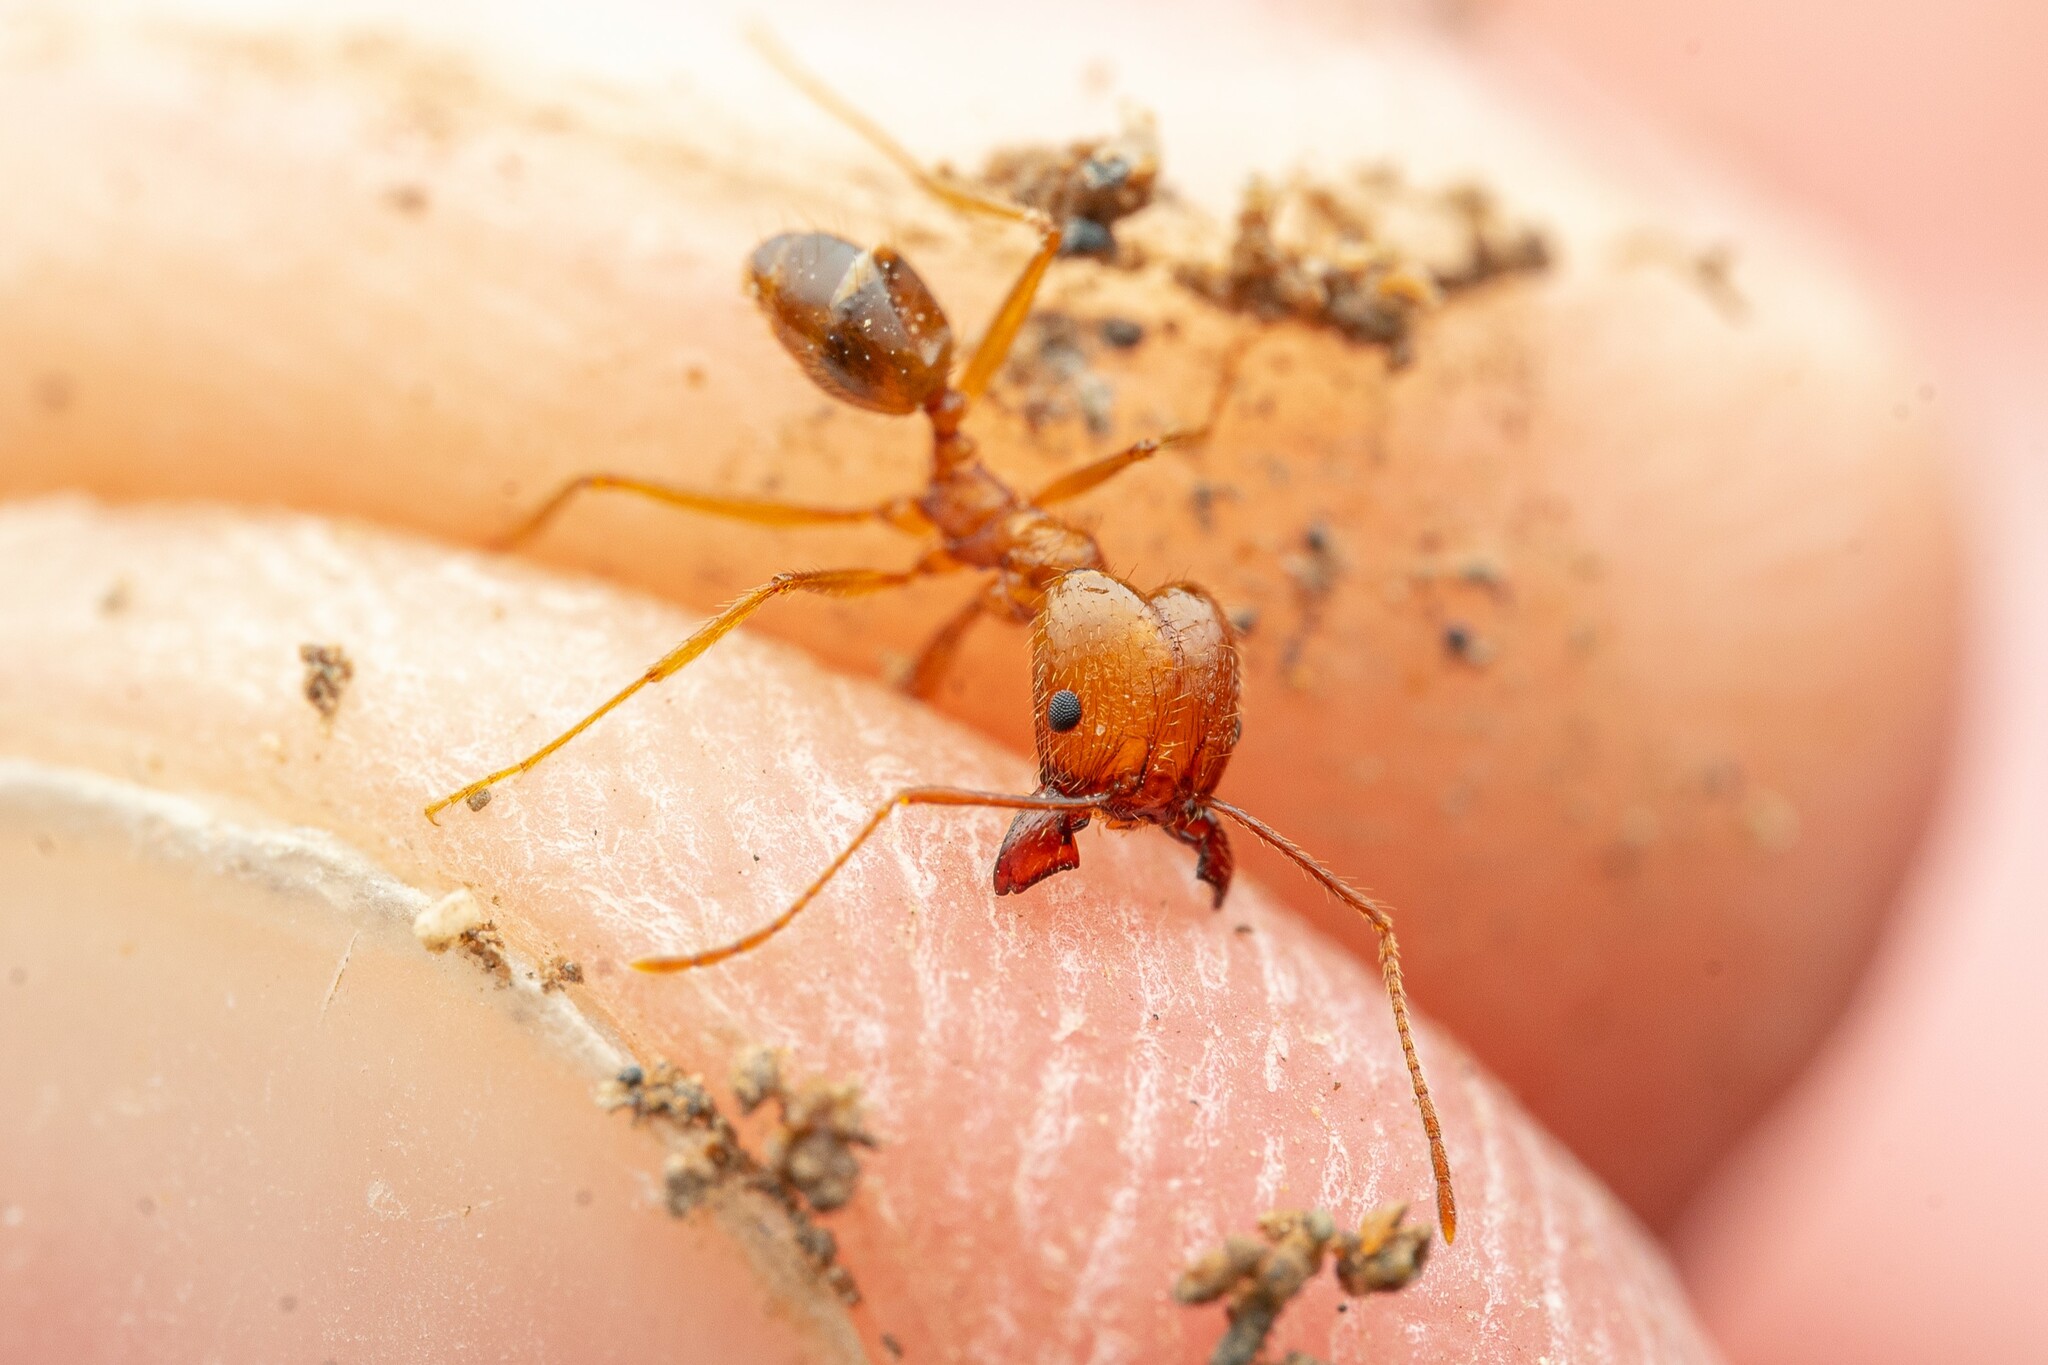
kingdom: Animalia
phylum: Arthropoda
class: Insecta
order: Hymenoptera
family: Formicidae
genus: Pheidole
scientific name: Pheidole desertorum
